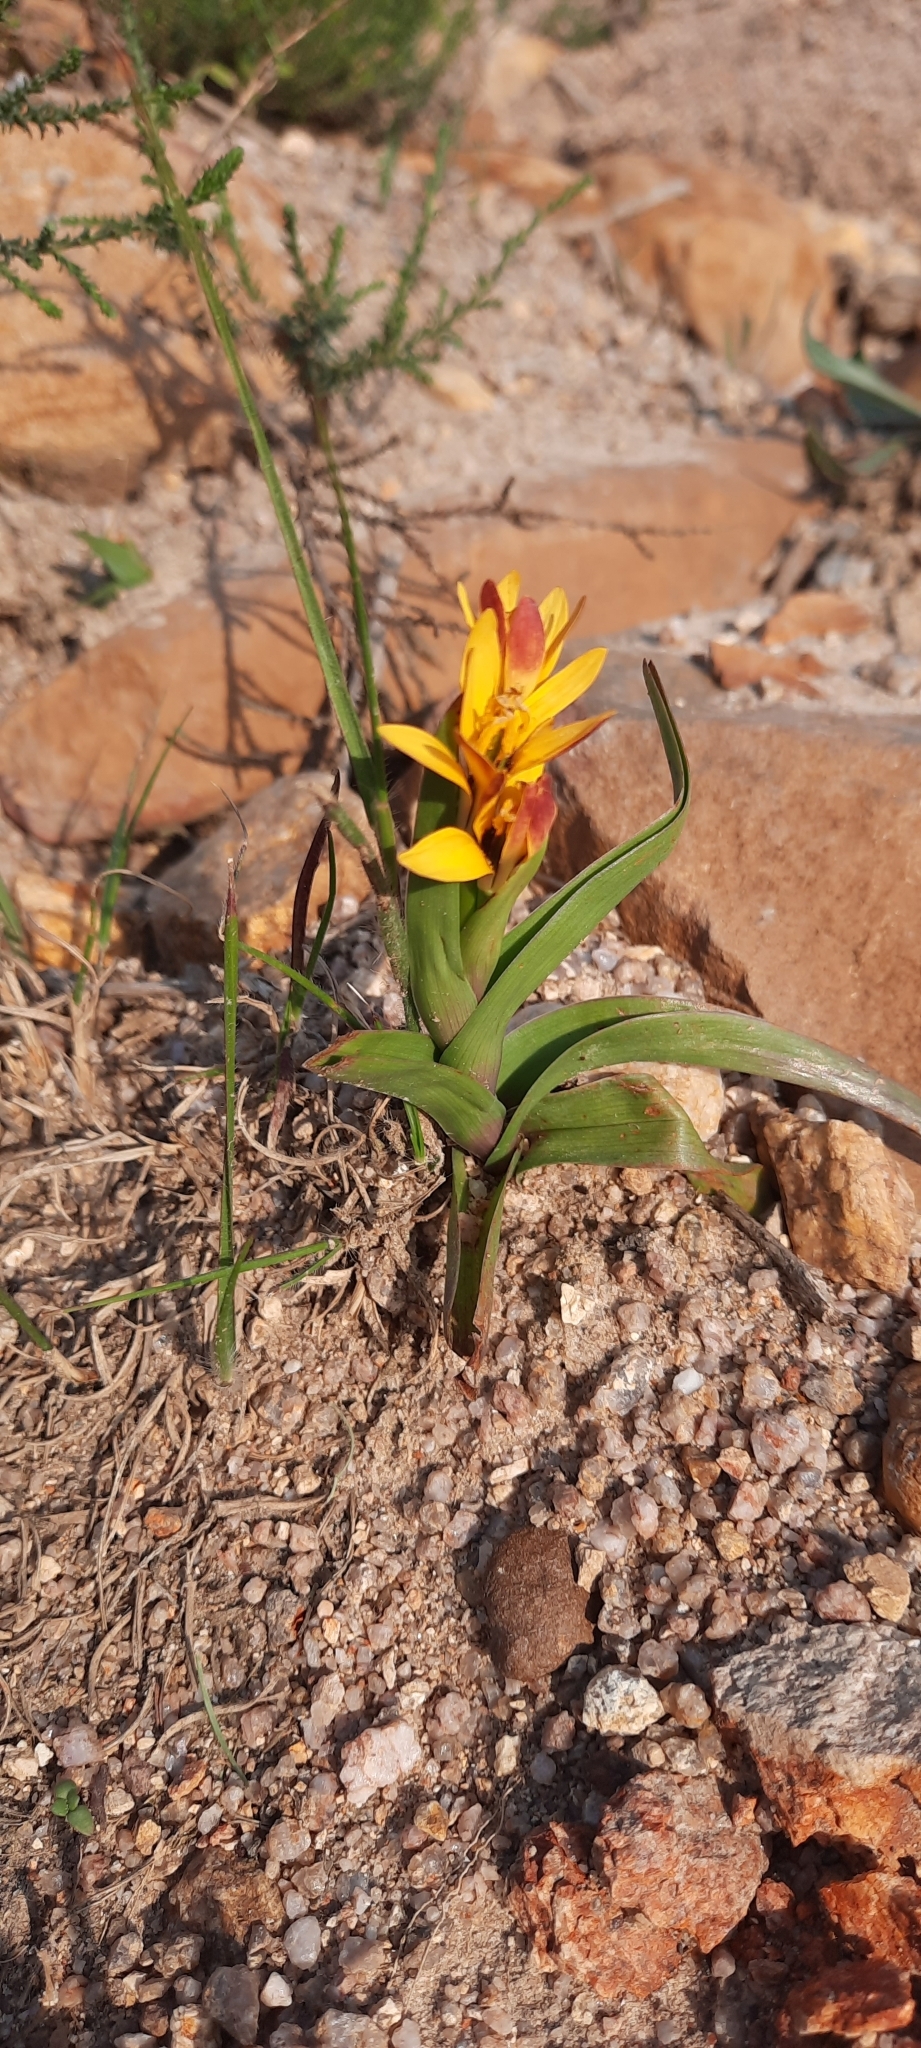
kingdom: Plantae
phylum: Tracheophyta
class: Liliopsida
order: Liliales
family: Colchicaceae
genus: Baeometra
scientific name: Baeometra uniflora
